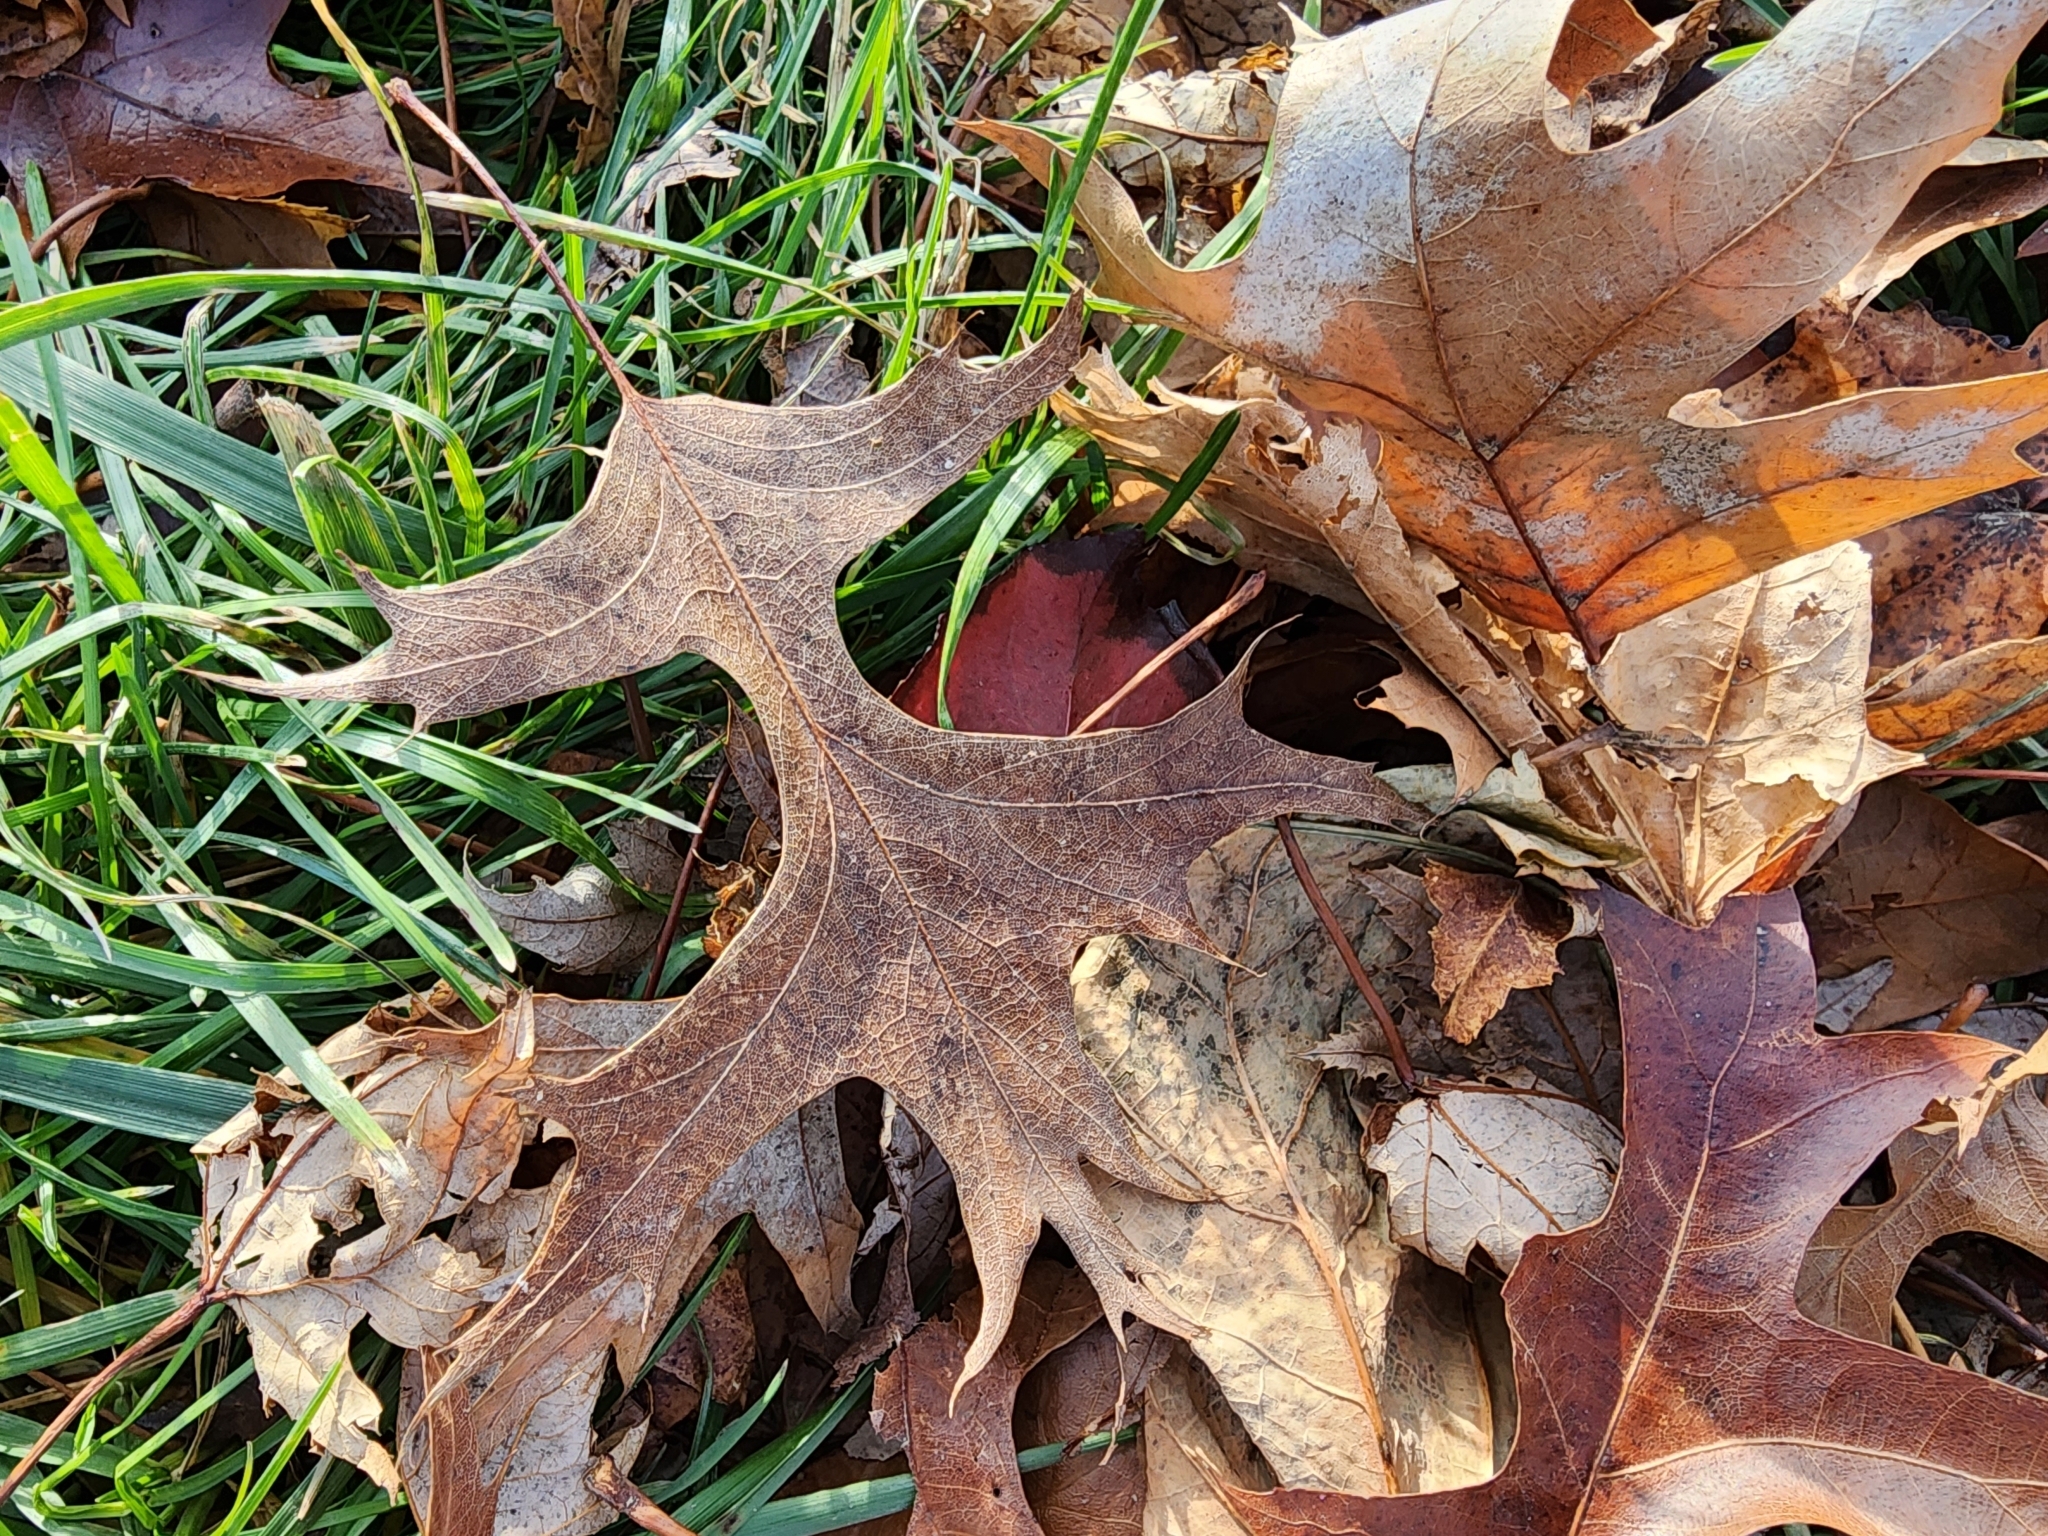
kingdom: Plantae
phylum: Tracheophyta
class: Magnoliopsida
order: Fagales
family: Fagaceae
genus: Quercus
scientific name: Quercus palustris
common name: Pin oak
